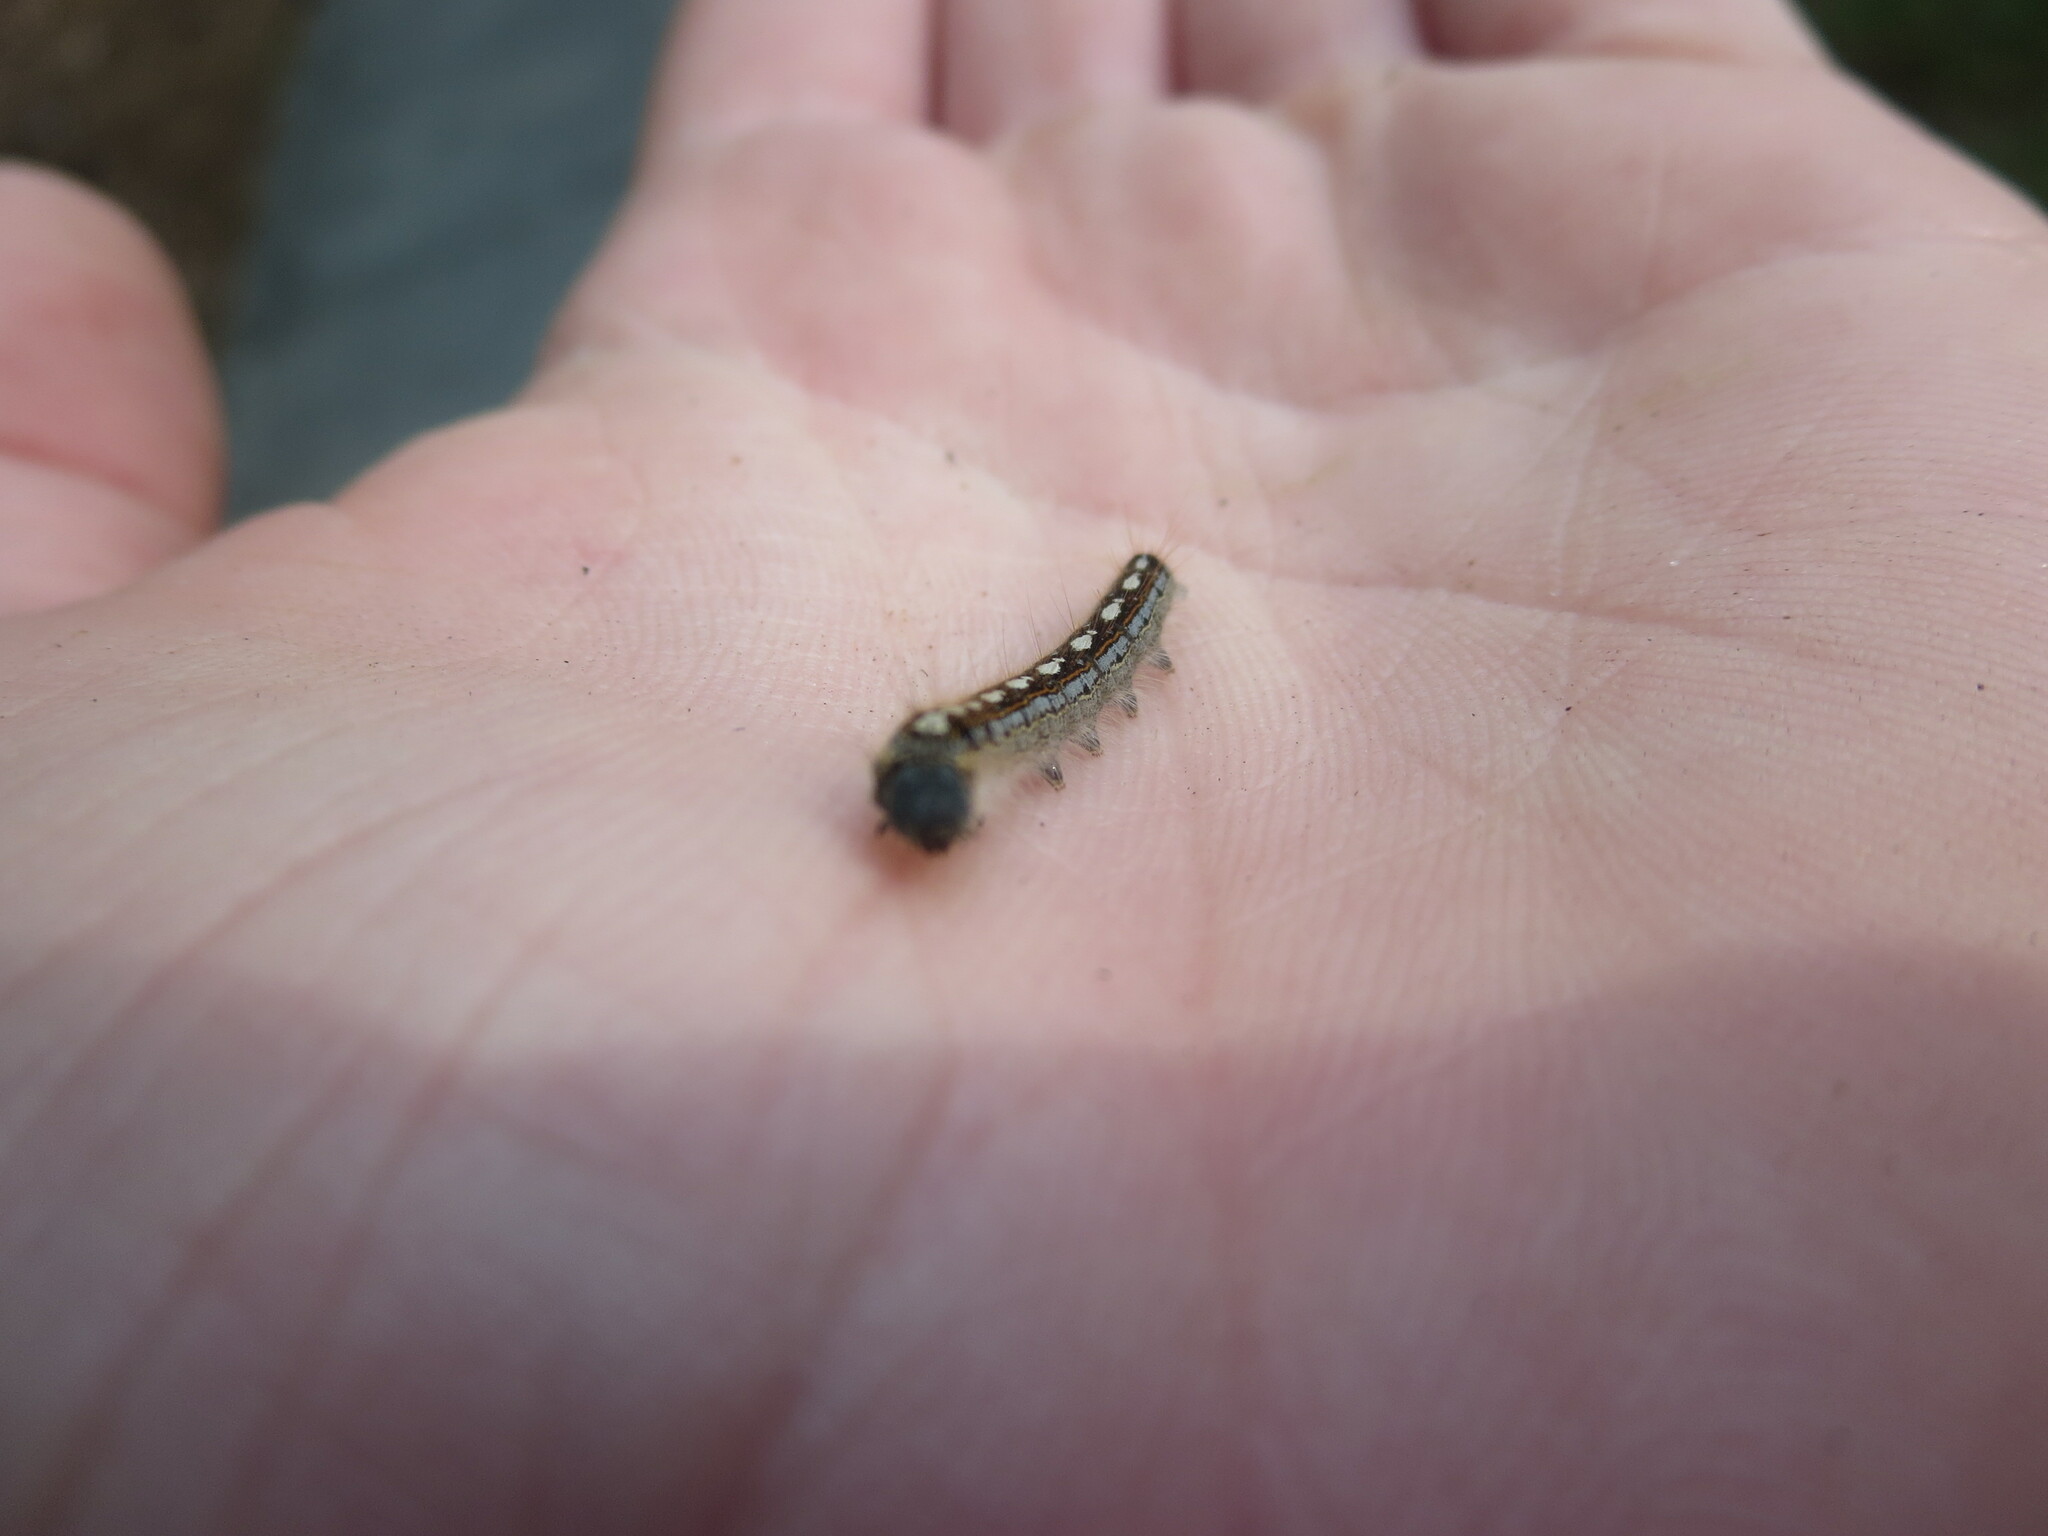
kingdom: Animalia
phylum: Arthropoda
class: Insecta
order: Lepidoptera
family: Lasiocampidae
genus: Malacosoma
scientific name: Malacosoma disstria
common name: Forest tent caterpillar
